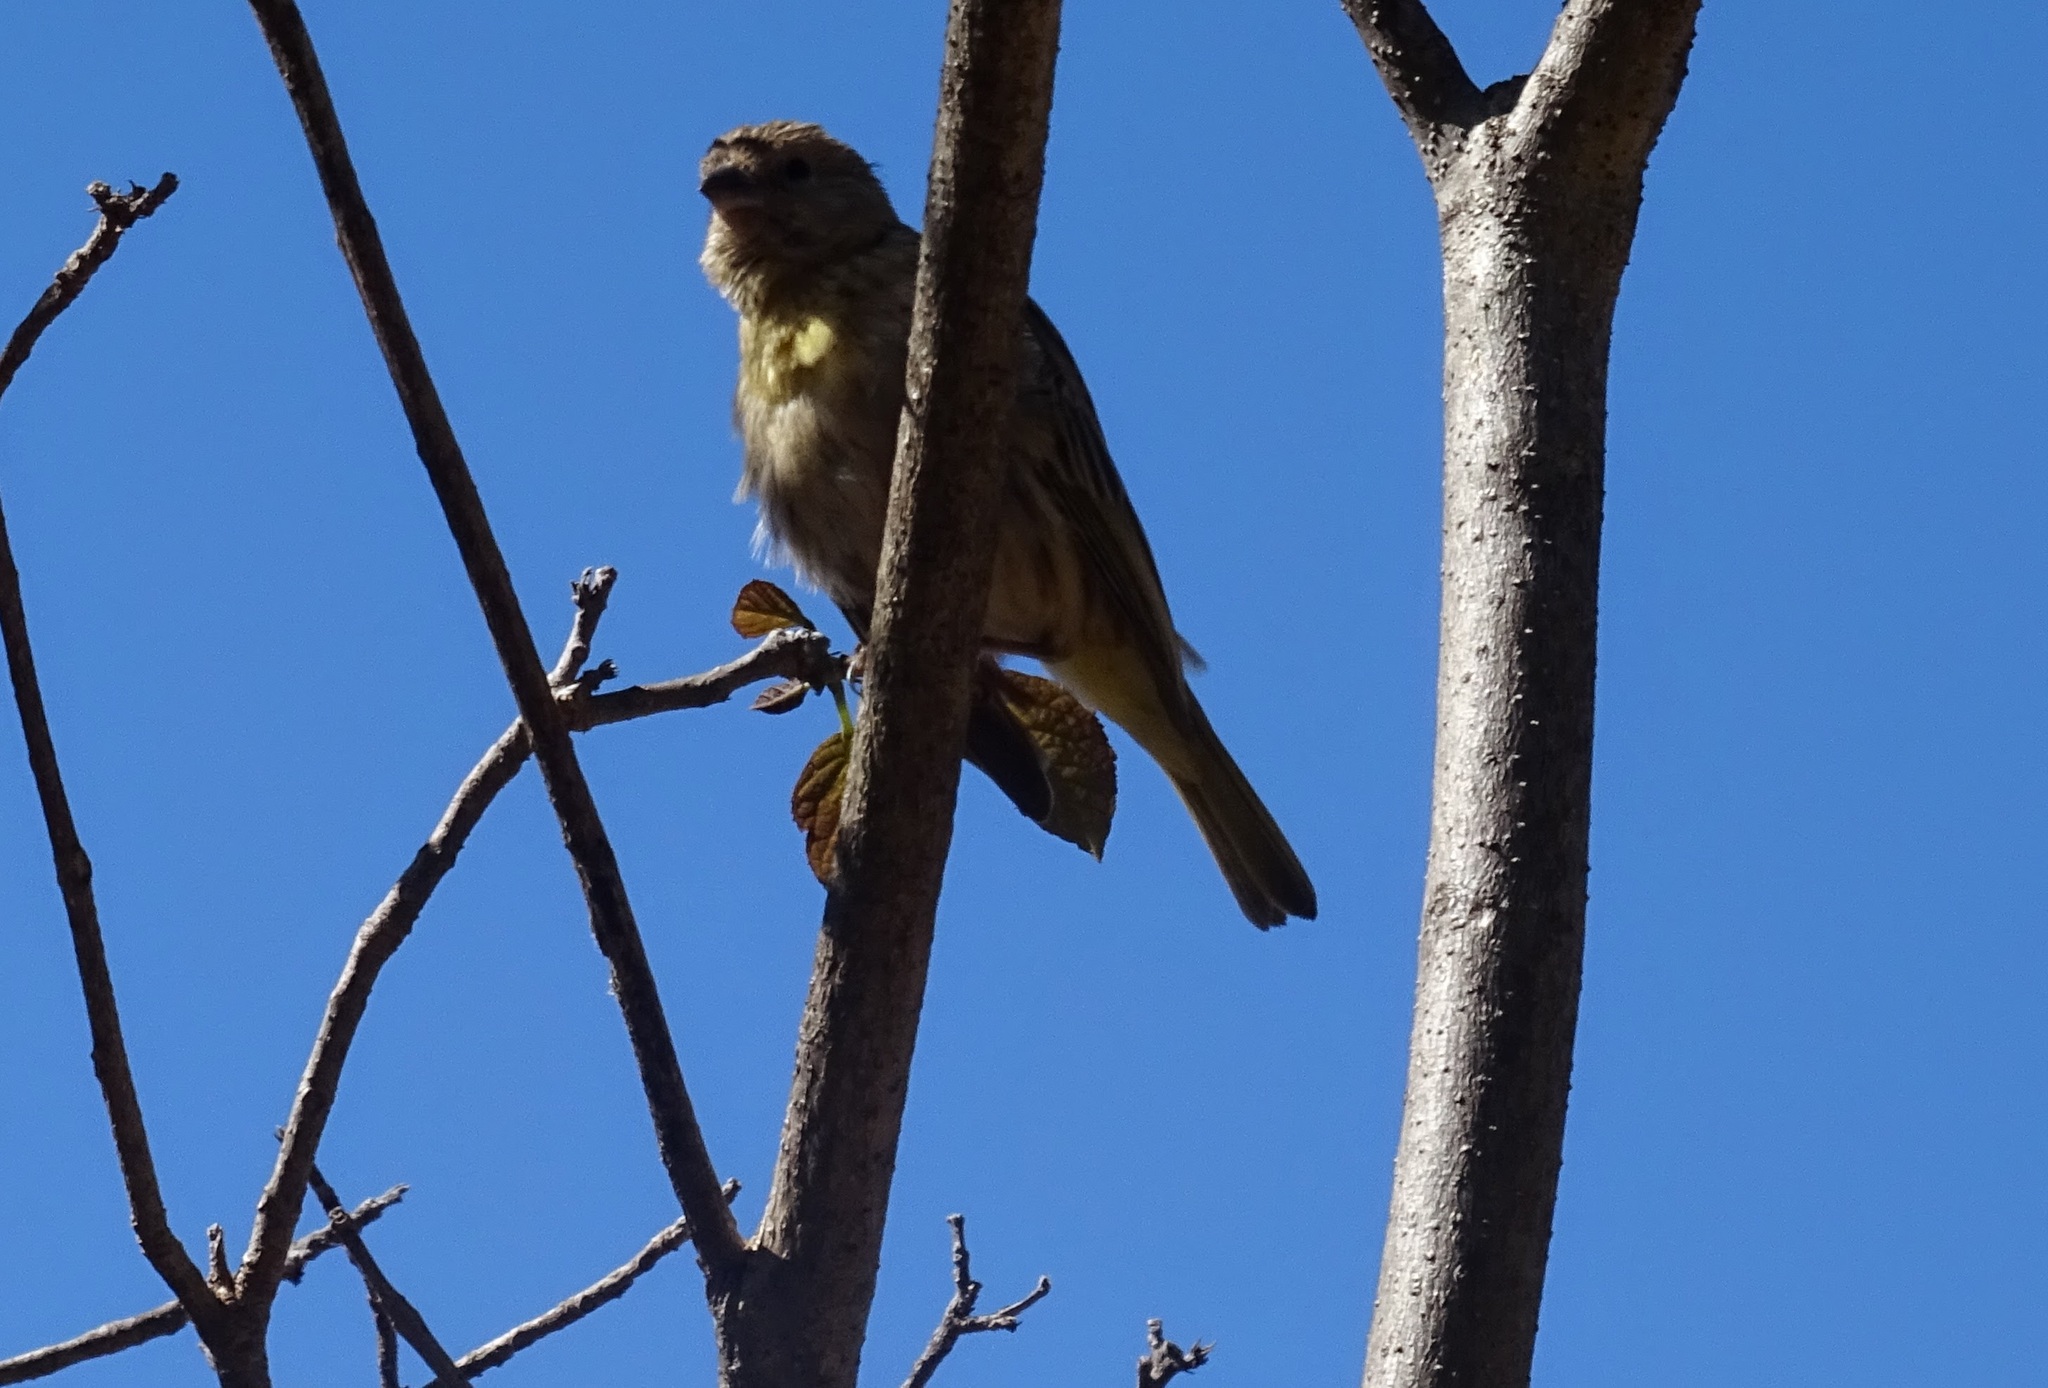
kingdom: Animalia
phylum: Chordata
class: Aves
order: Passeriformes
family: Thraupidae
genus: Sicalis
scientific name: Sicalis luteola
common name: Grassland yellow-finch
